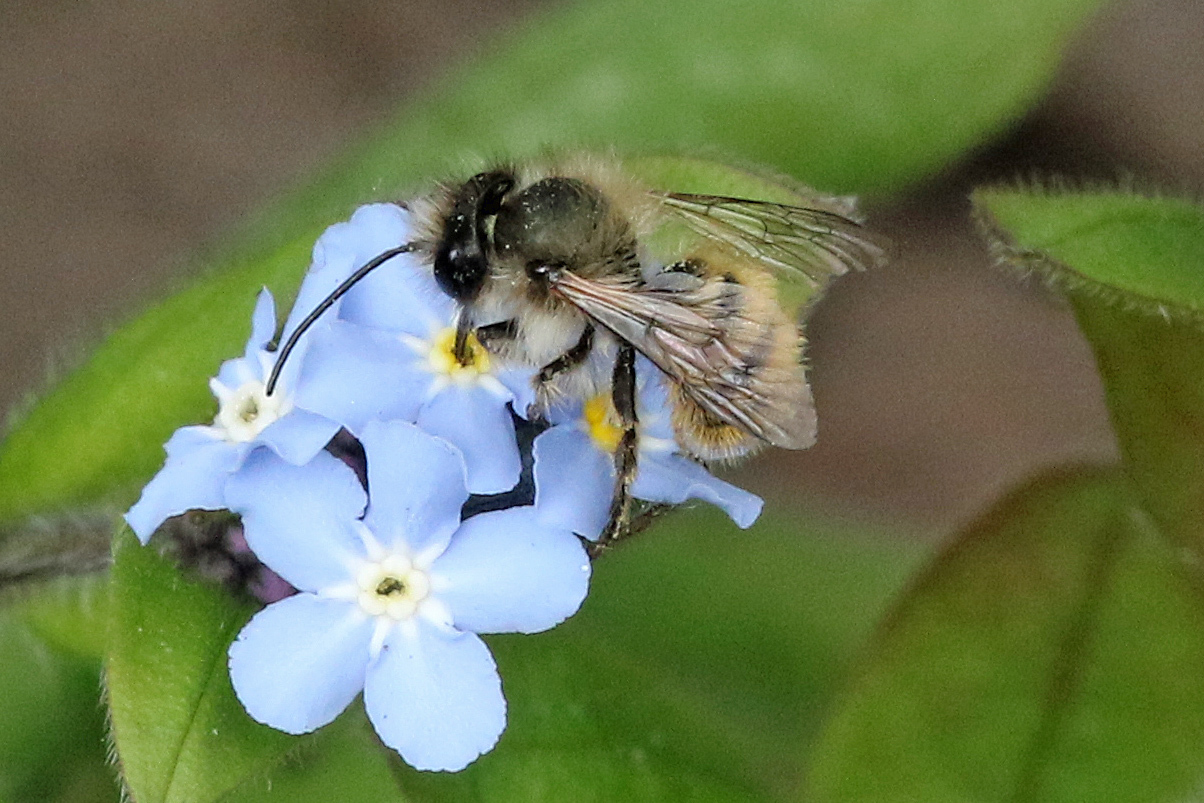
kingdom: Animalia
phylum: Arthropoda
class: Insecta
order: Hymenoptera
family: Megachilidae
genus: Osmia
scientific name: Osmia bicornis
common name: Red mason bee
